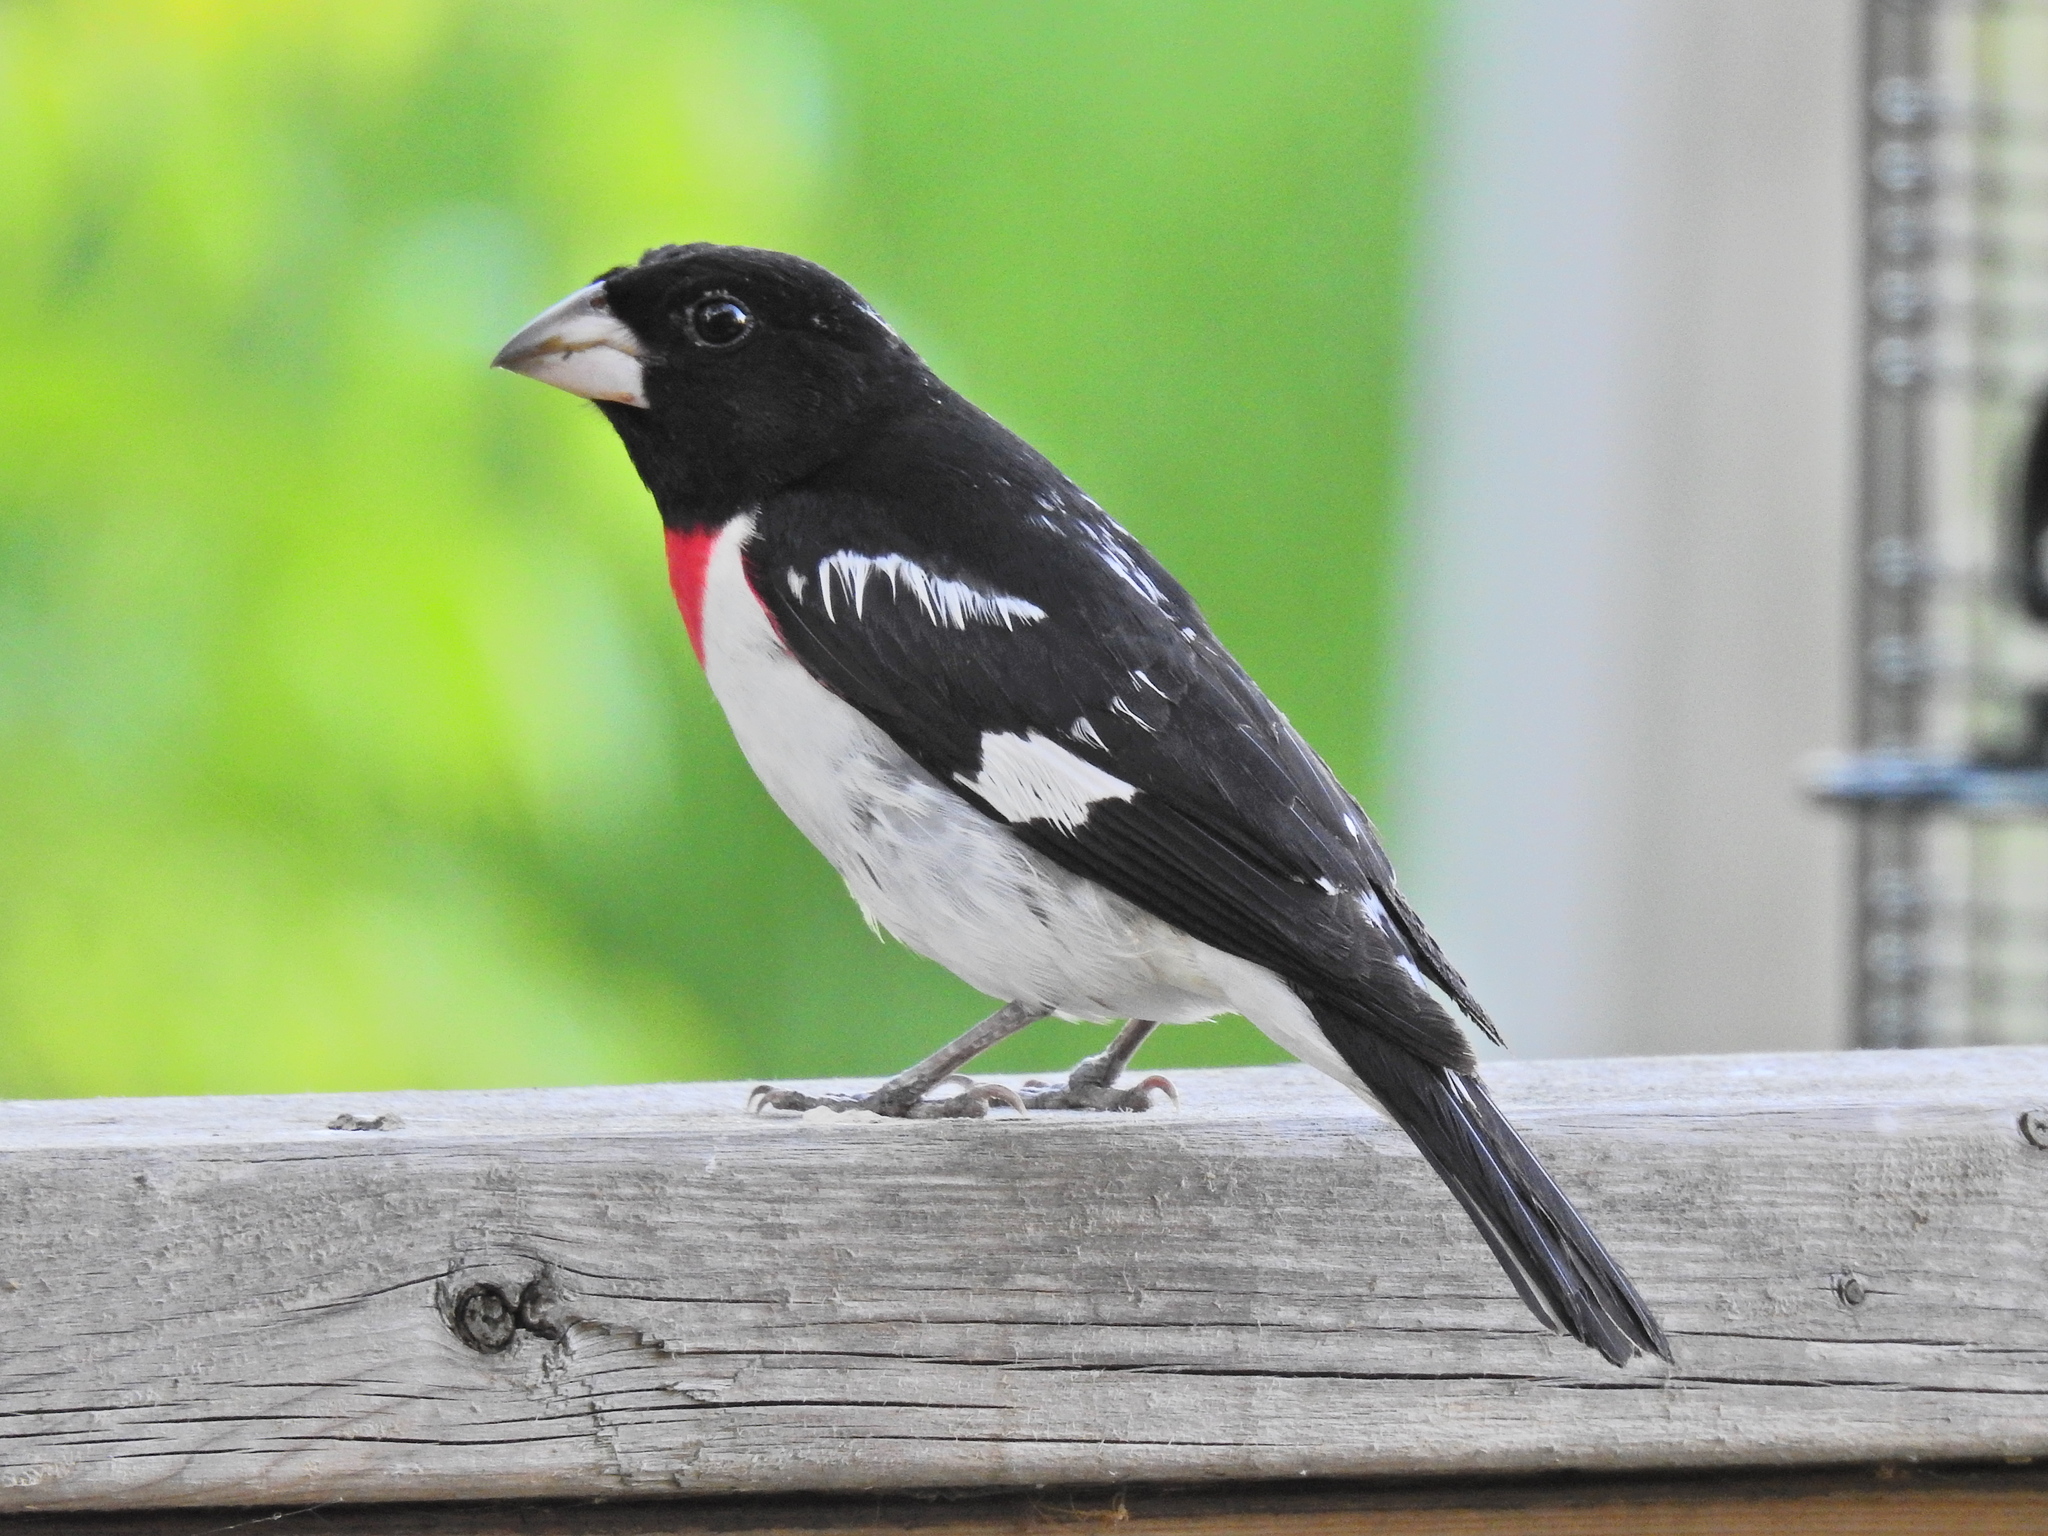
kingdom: Animalia
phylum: Chordata
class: Aves
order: Passeriformes
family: Cardinalidae
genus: Pheucticus
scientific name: Pheucticus ludovicianus
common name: Rose-breasted grosbeak
